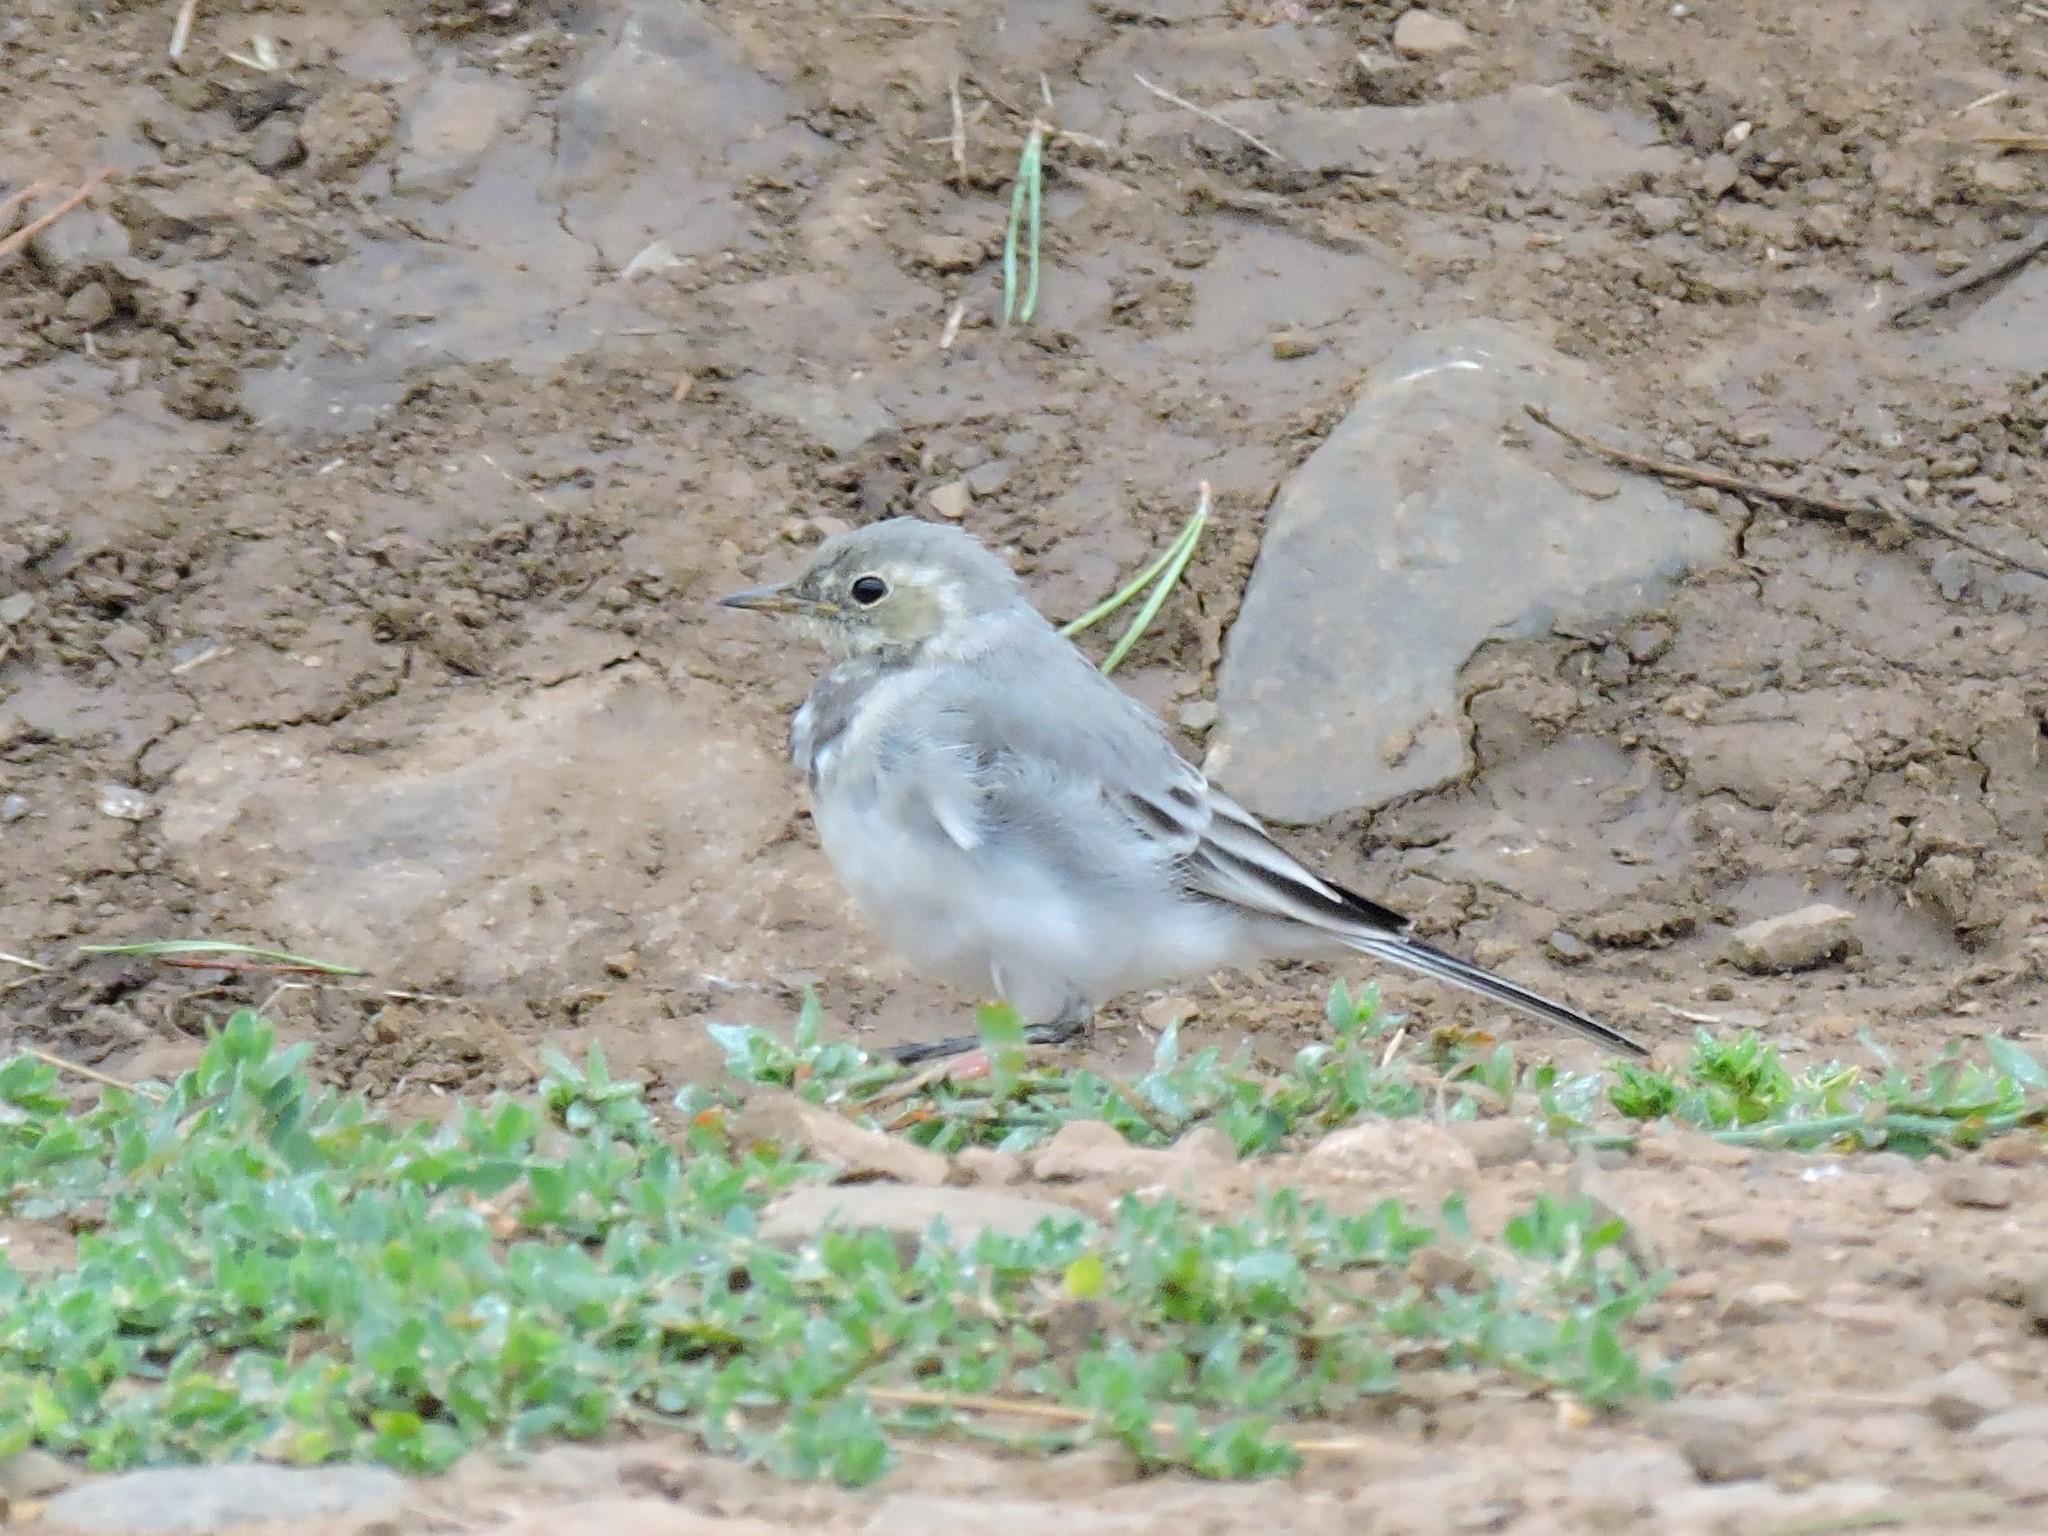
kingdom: Animalia
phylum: Chordata
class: Aves
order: Passeriformes
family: Motacillidae
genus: Motacilla
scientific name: Motacilla alba
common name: White wagtail
